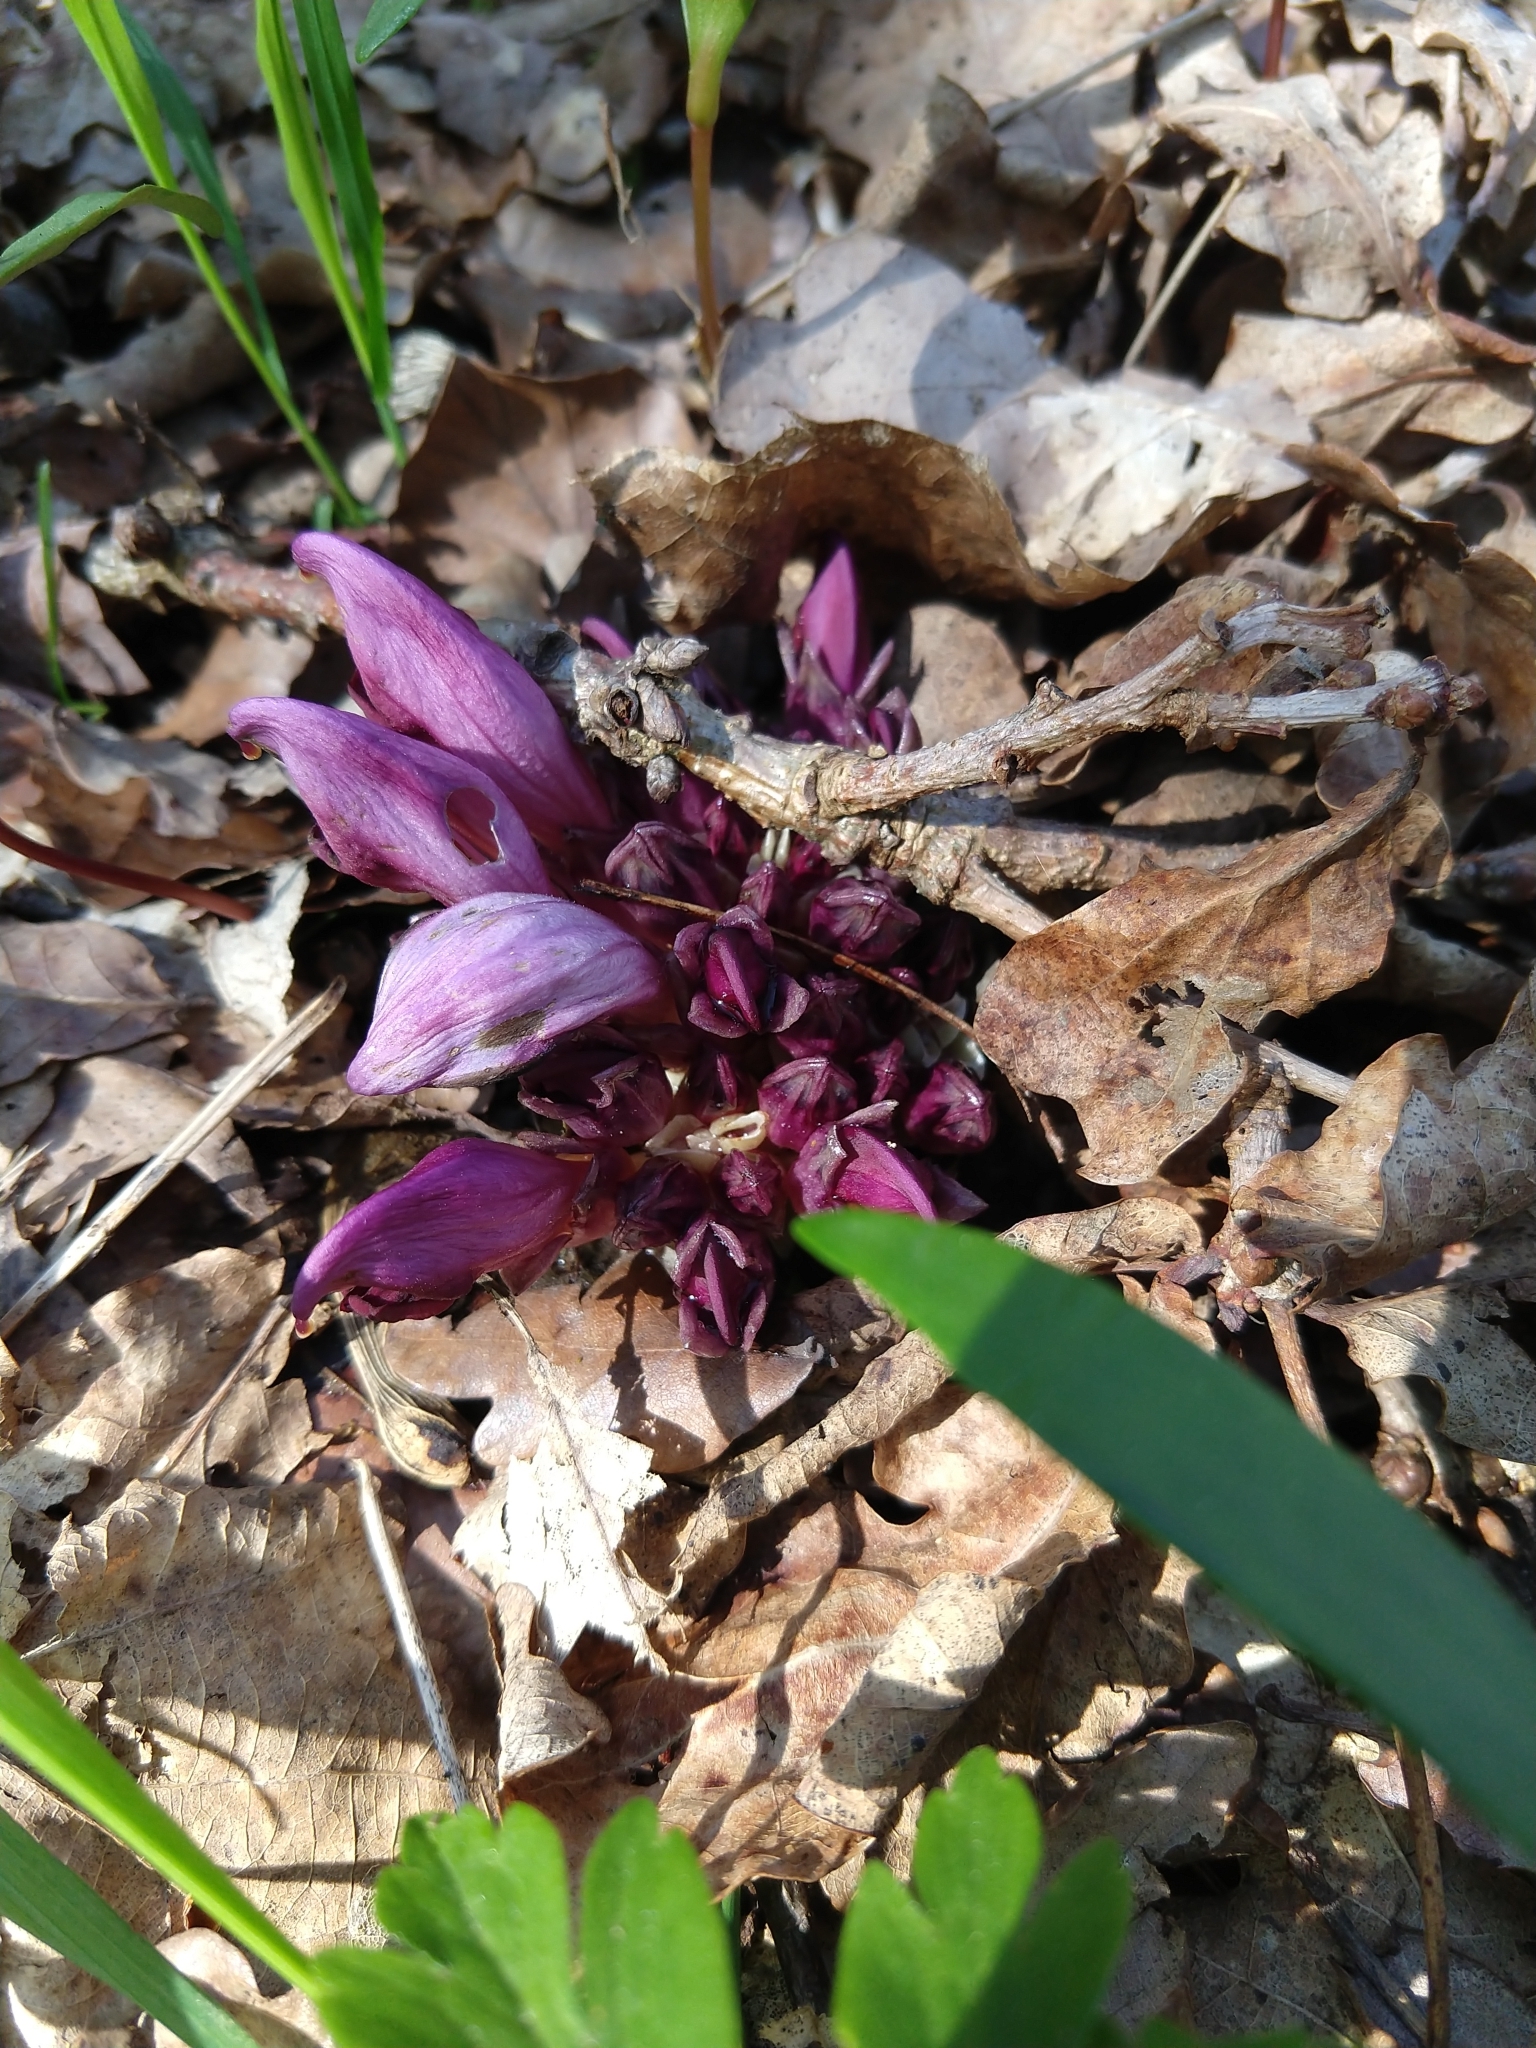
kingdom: Plantae
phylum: Tracheophyta
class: Magnoliopsida
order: Lamiales
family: Orobanchaceae
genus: Lathraea
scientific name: Lathraea clandestina
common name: Purple toothwort
